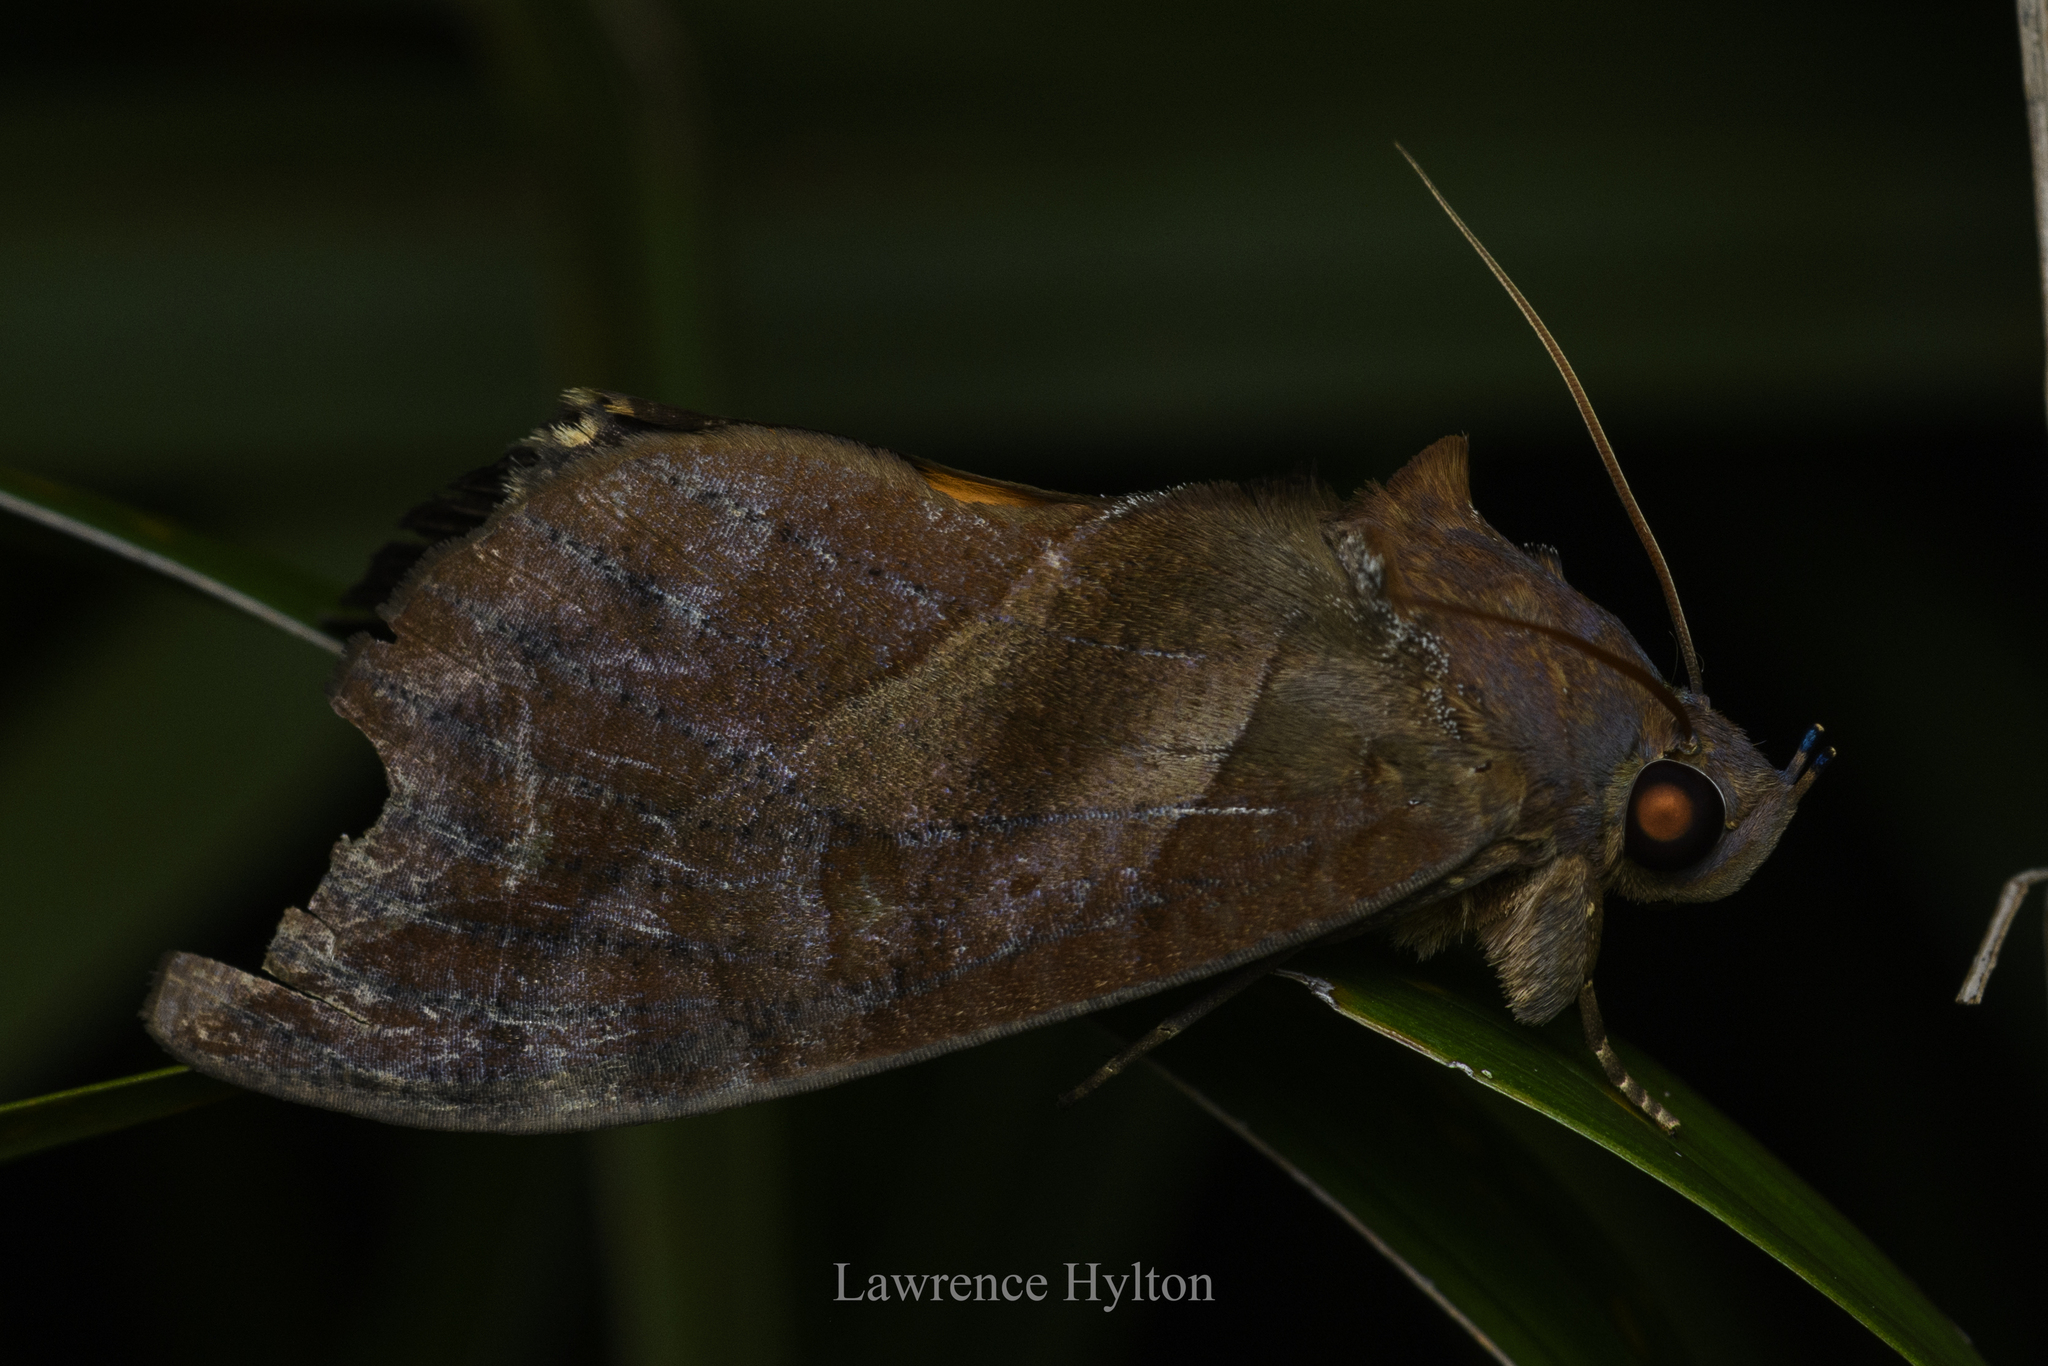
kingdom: Animalia
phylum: Arthropoda
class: Insecta
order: Lepidoptera
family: Erebidae
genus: Eudocima
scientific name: Eudocima phalonia
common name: Wasp
